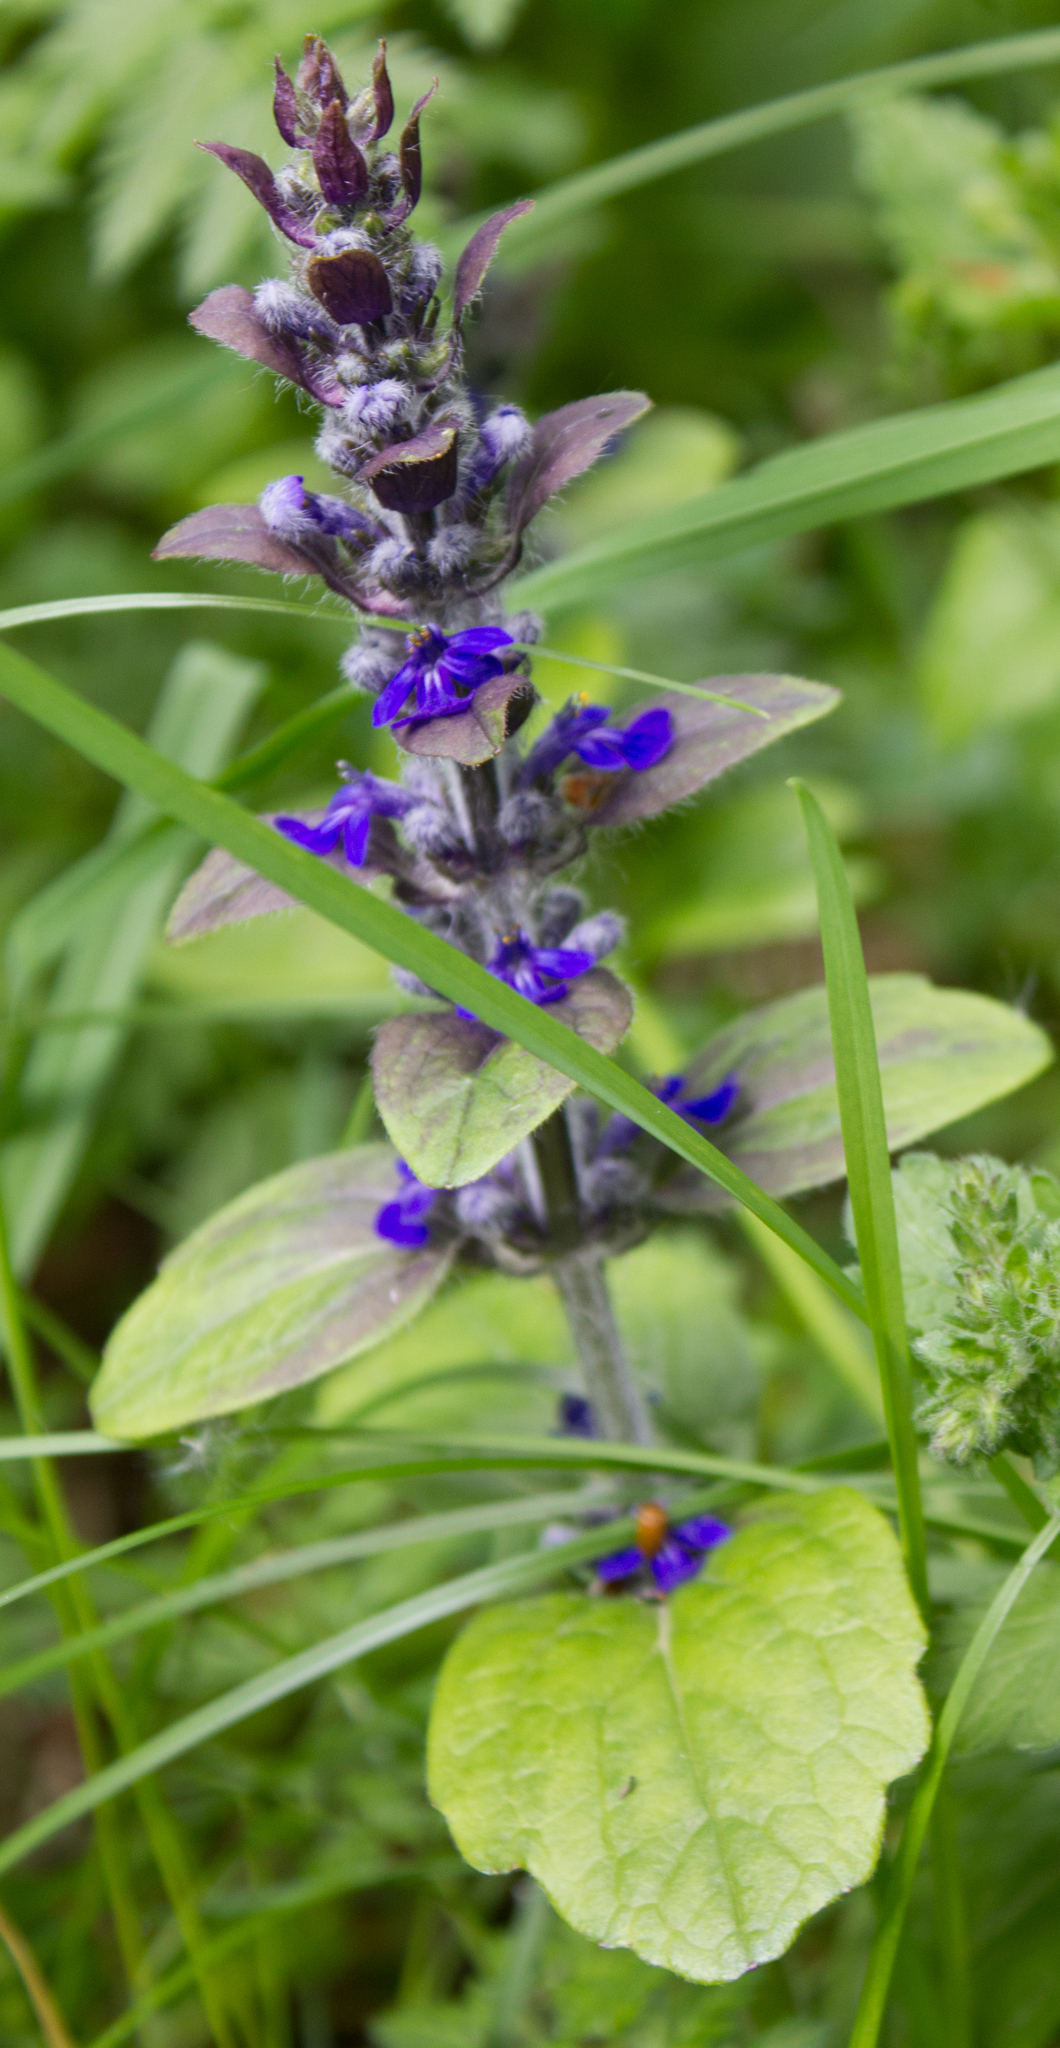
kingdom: Plantae
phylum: Tracheophyta
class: Magnoliopsida
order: Lamiales
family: Lamiaceae
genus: Ajuga
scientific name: Ajuga reptans
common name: Bugle
